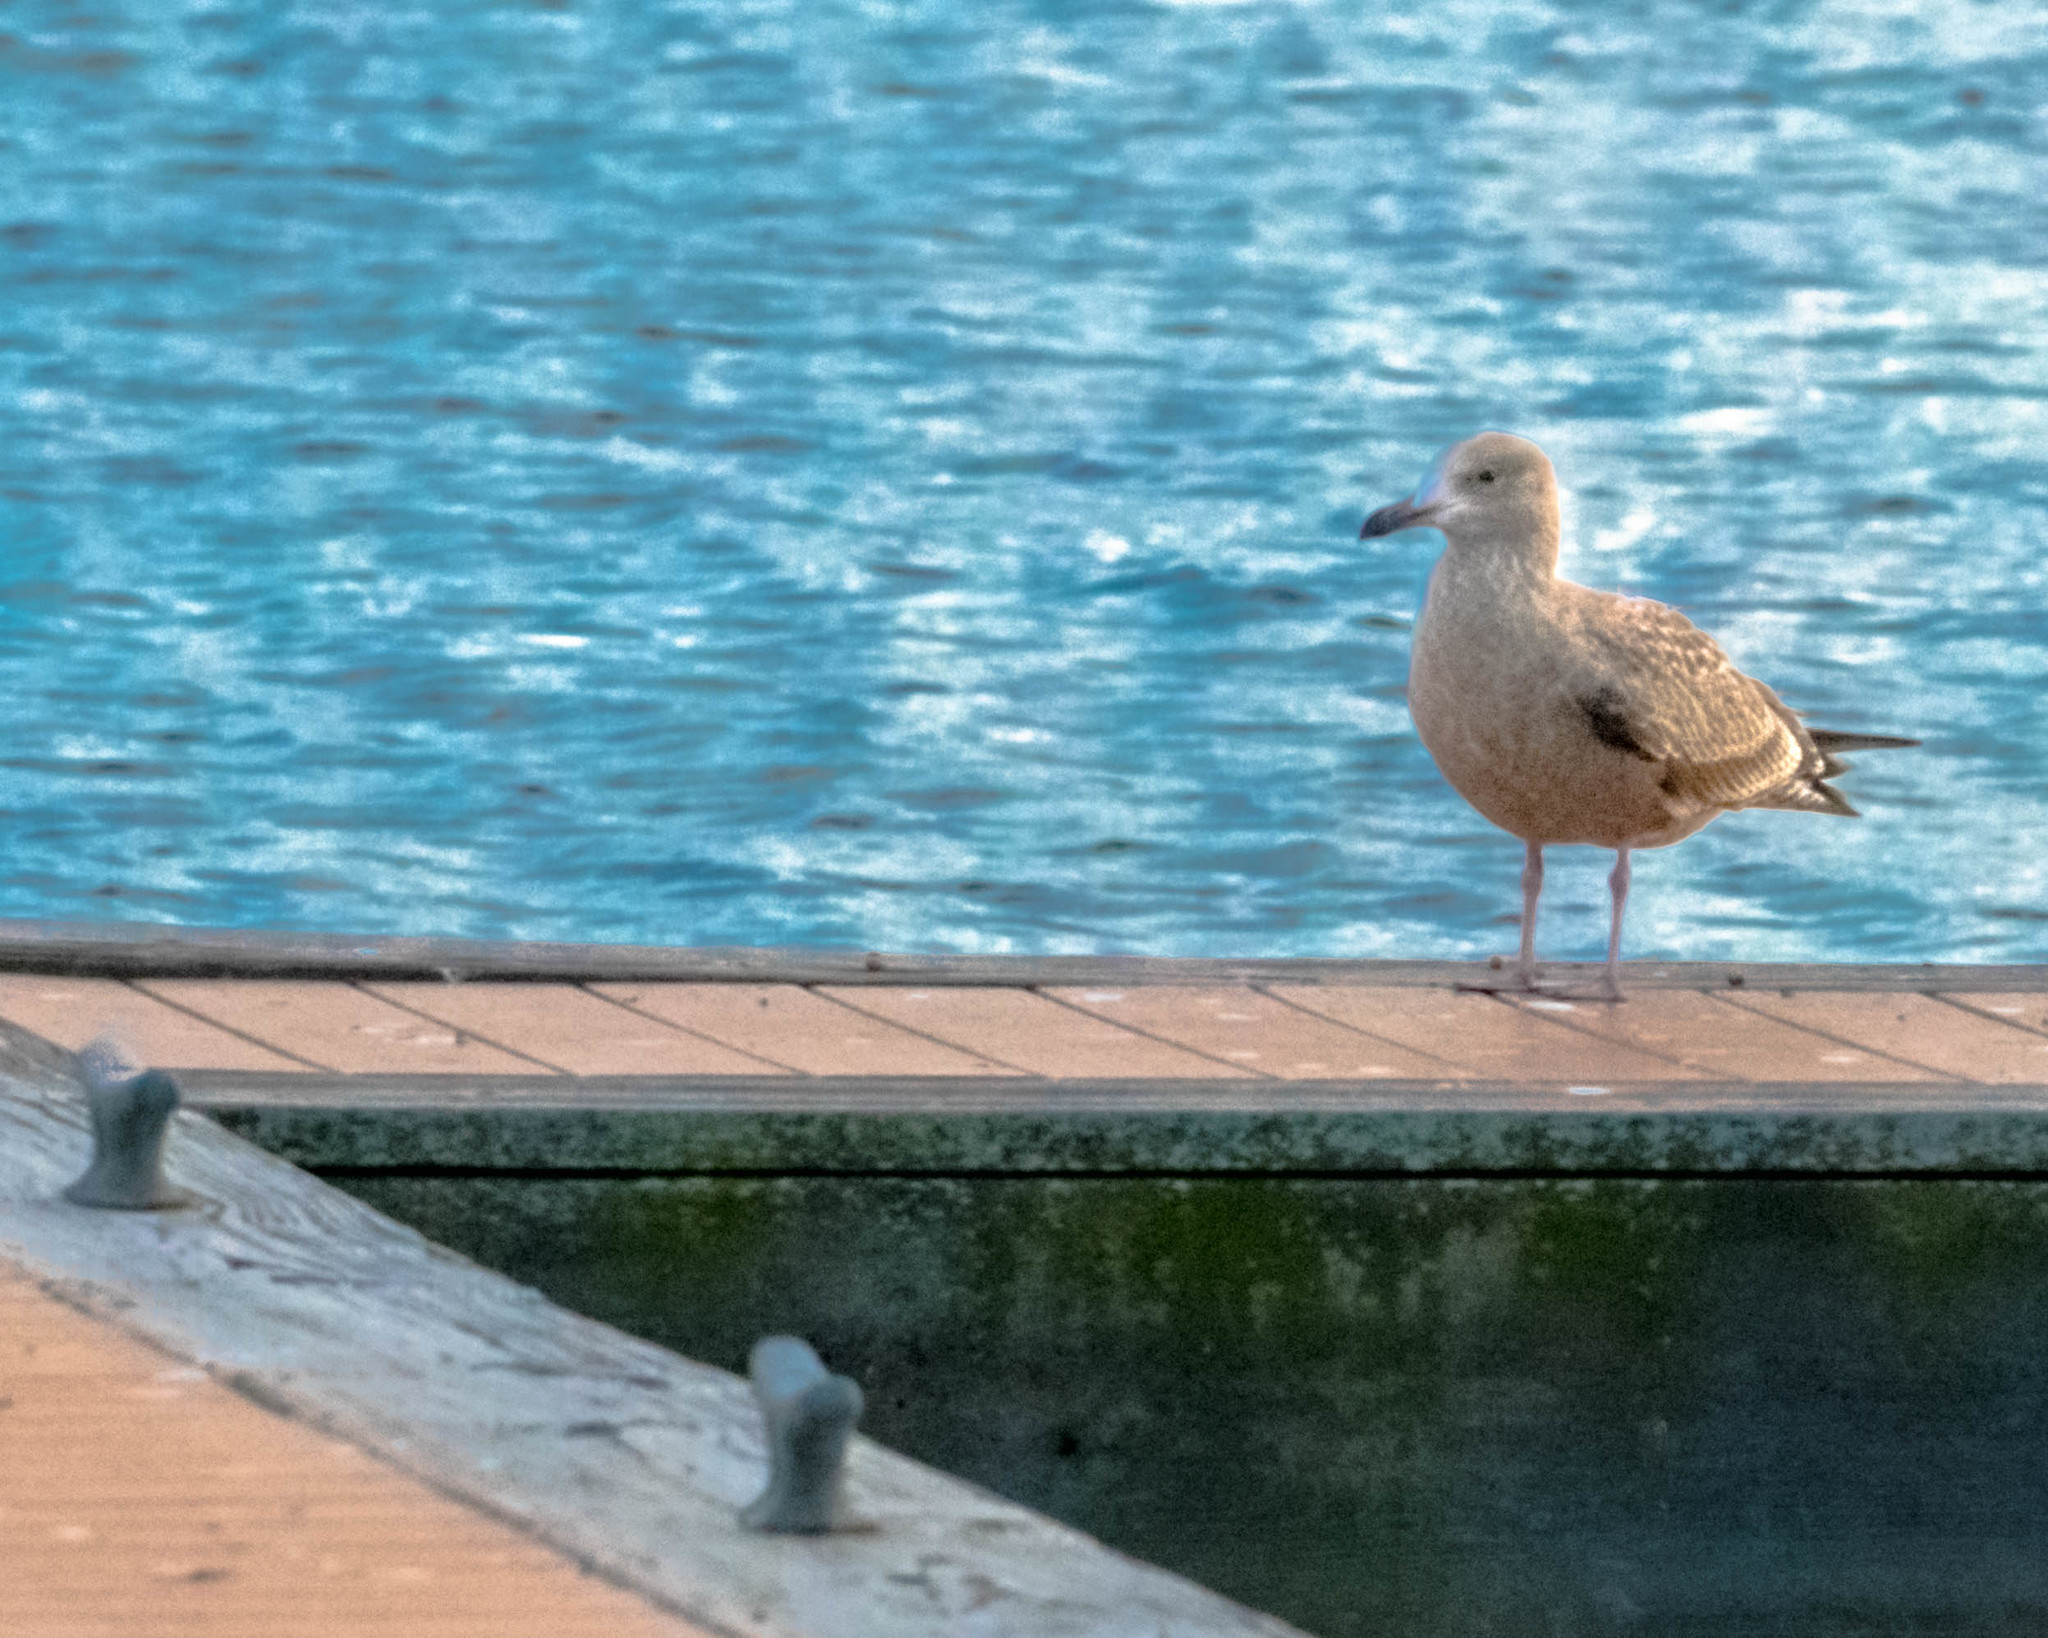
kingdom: Animalia
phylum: Chordata
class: Aves
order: Charadriiformes
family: Laridae
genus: Larus
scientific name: Larus argentatus
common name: Herring gull
